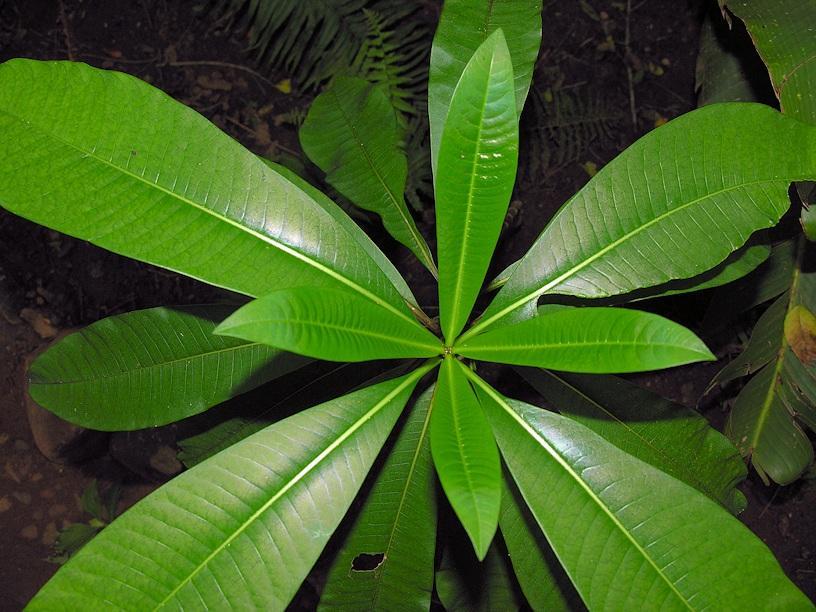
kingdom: Plantae
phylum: Tracheophyta
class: Magnoliopsida
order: Gentianales
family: Apocynaceae
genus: Rauvolfia
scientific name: Rauvolfia caffra
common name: Quininetree
